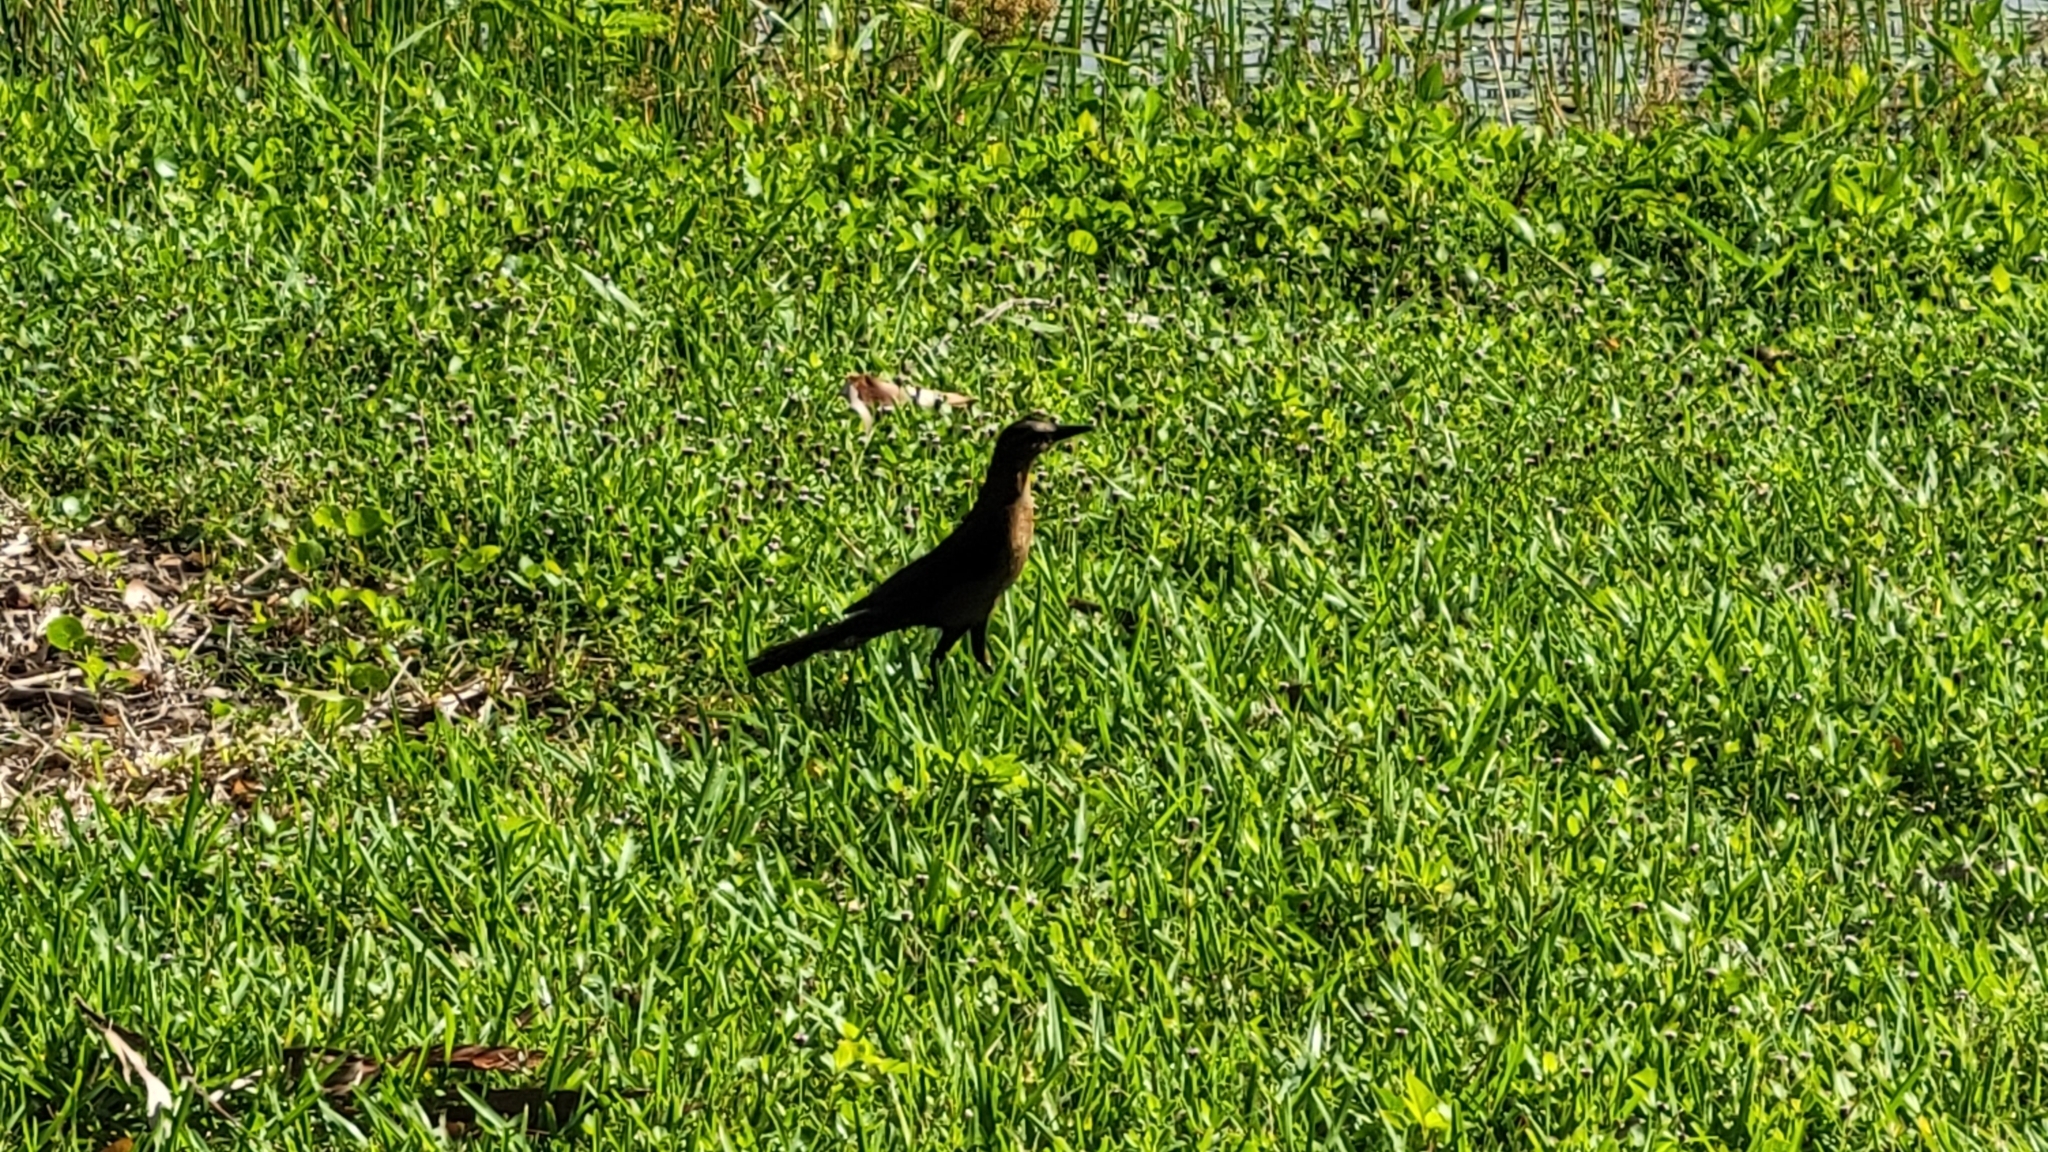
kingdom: Animalia
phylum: Chordata
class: Aves
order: Passeriformes
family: Icteridae
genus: Quiscalus
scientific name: Quiscalus major
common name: Boat-tailed grackle
